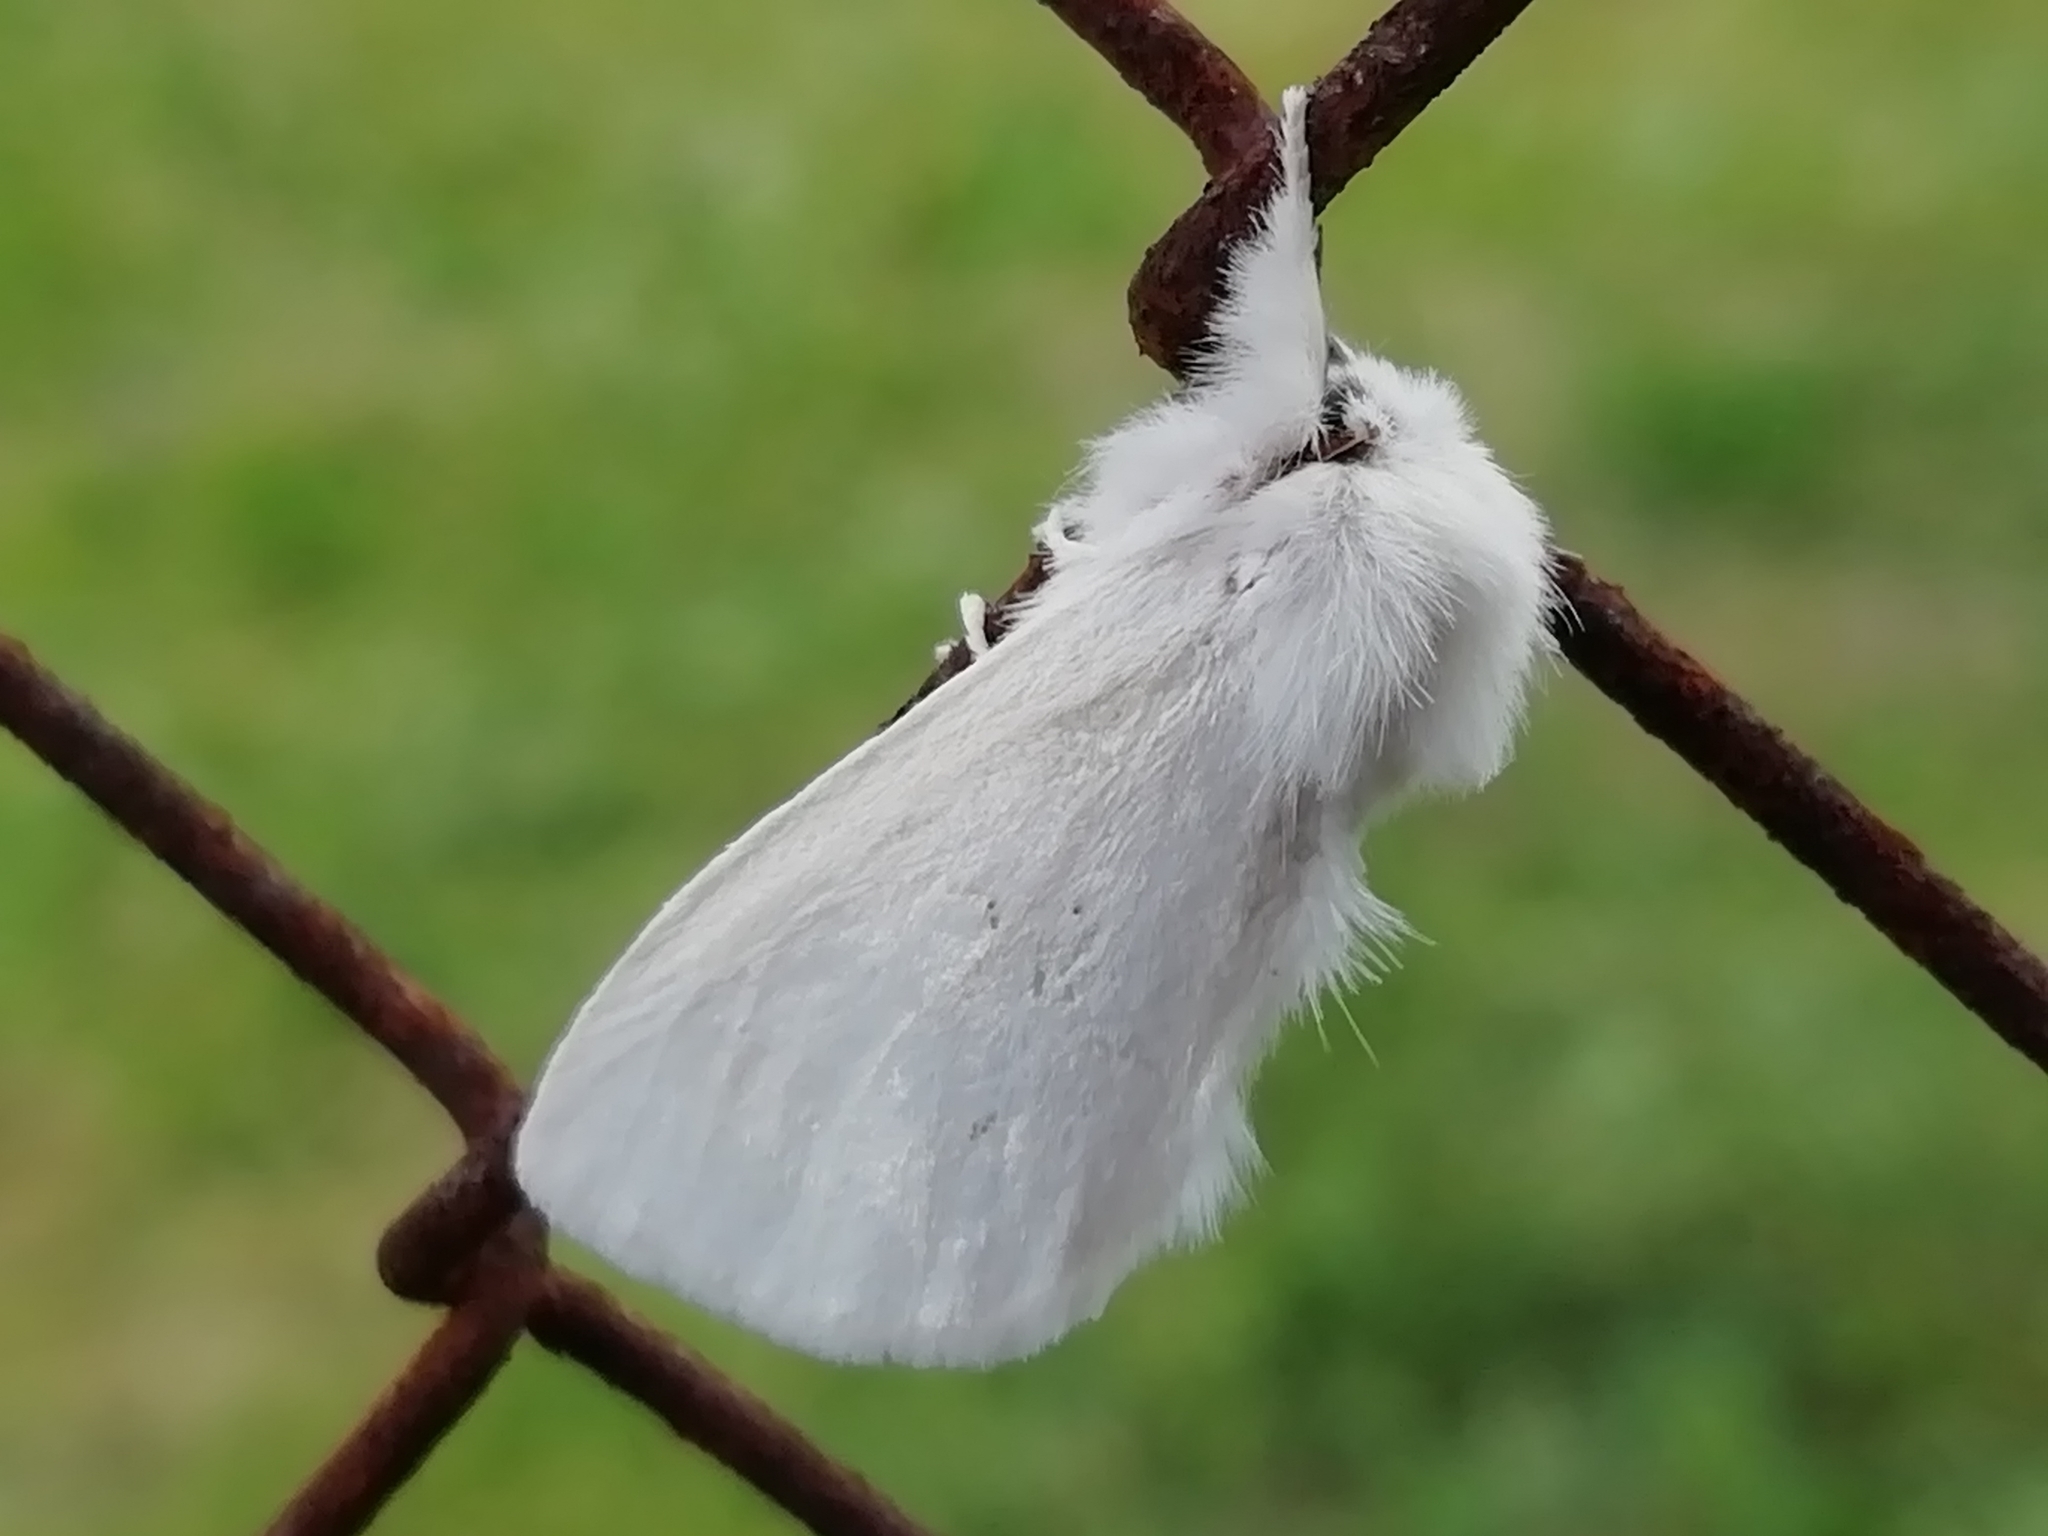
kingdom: Animalia
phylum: Arthropoda
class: Insecta
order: Lepidoptera
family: Notodontidae
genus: Leucodonta
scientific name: Leucodonta bicoloria
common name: White prominent
